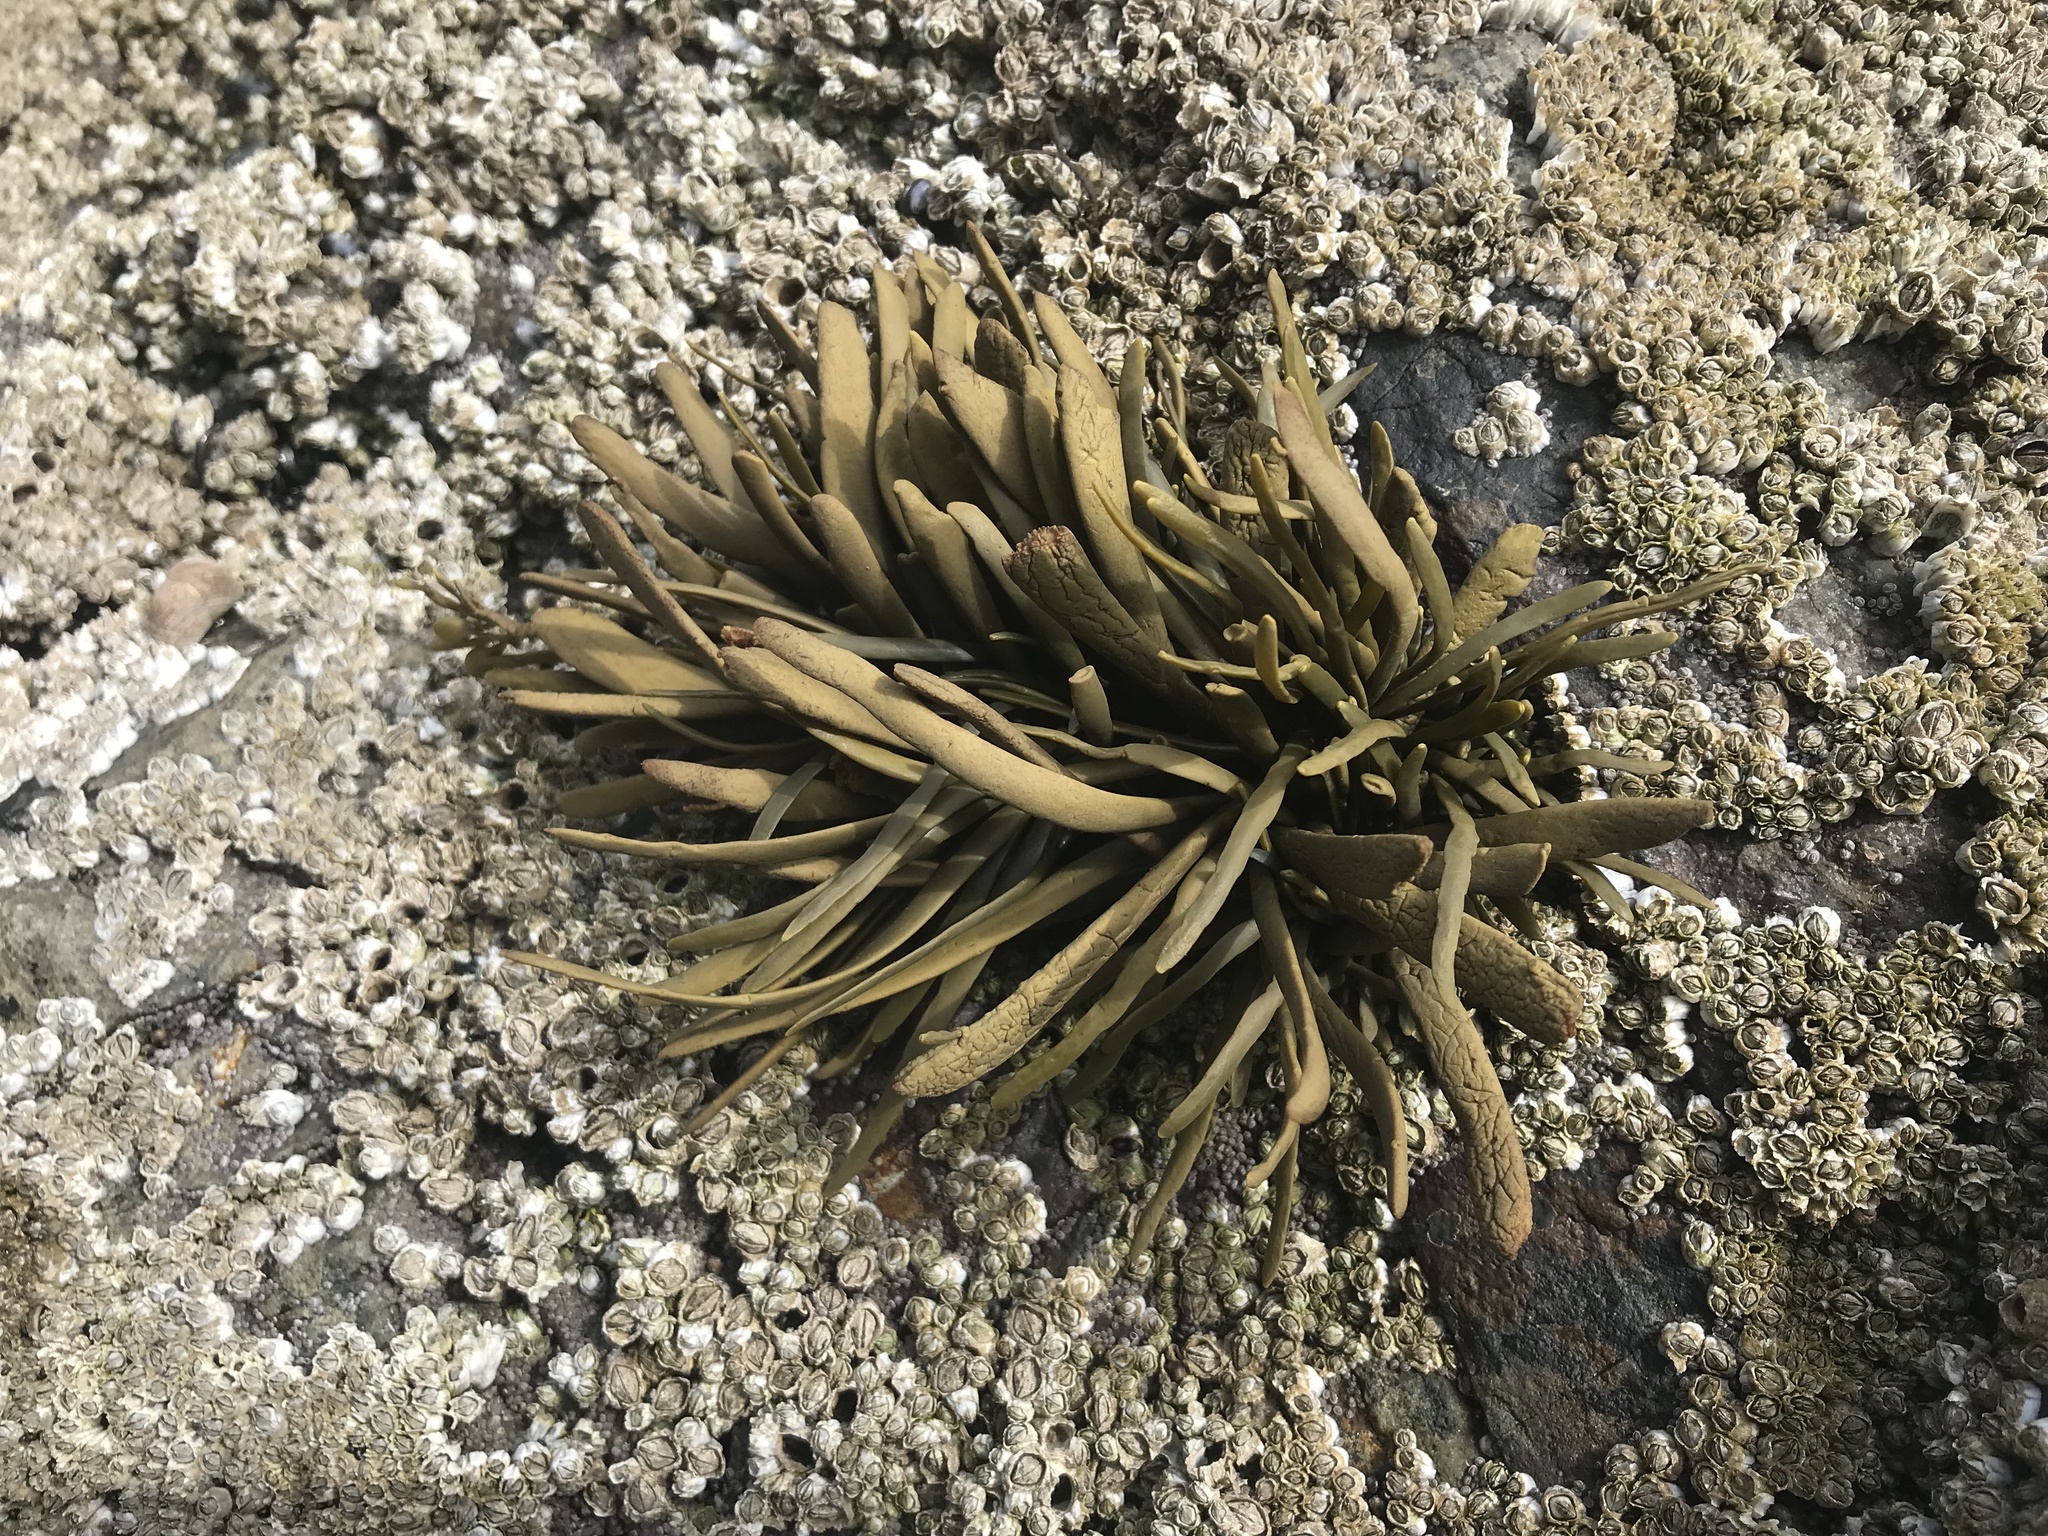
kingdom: Chromista
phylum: Ochrophyta
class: Phaeophyceae
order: Fucales
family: Fucaceae
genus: Ascophyllum
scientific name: Ascophyllum nodosum
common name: Knotted wrack
